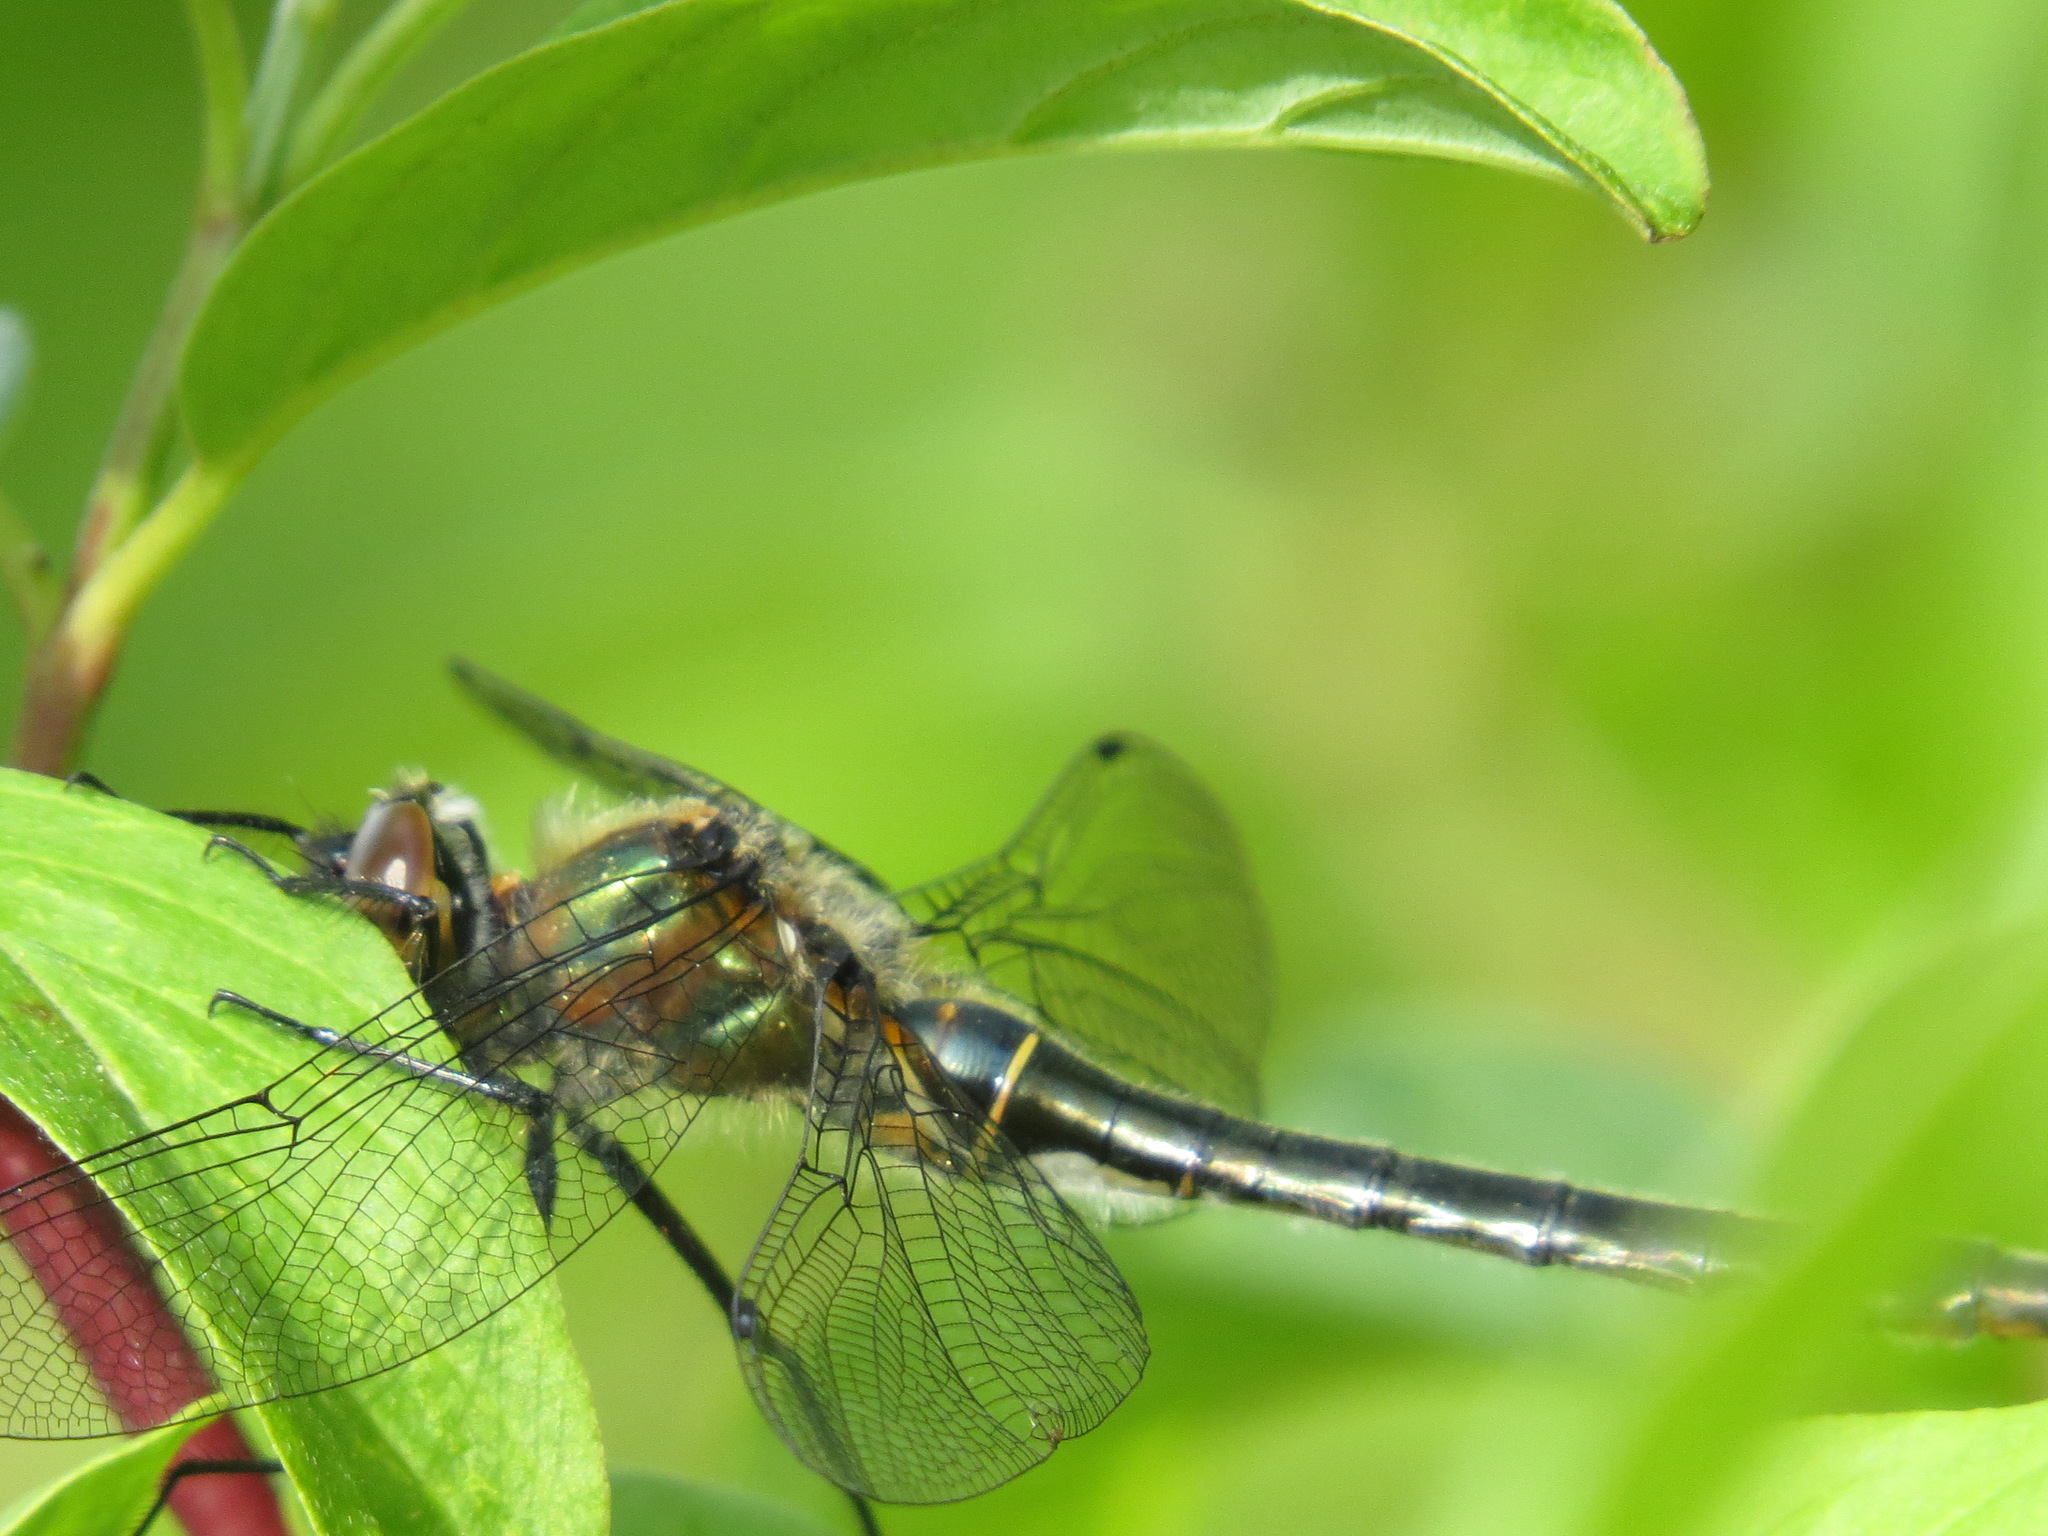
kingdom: Animalia
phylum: Arthropoda
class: Insecta
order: Odonata
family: Corduliidae
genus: Cordulia
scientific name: Cordulia shurtleffii
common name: American emerald
